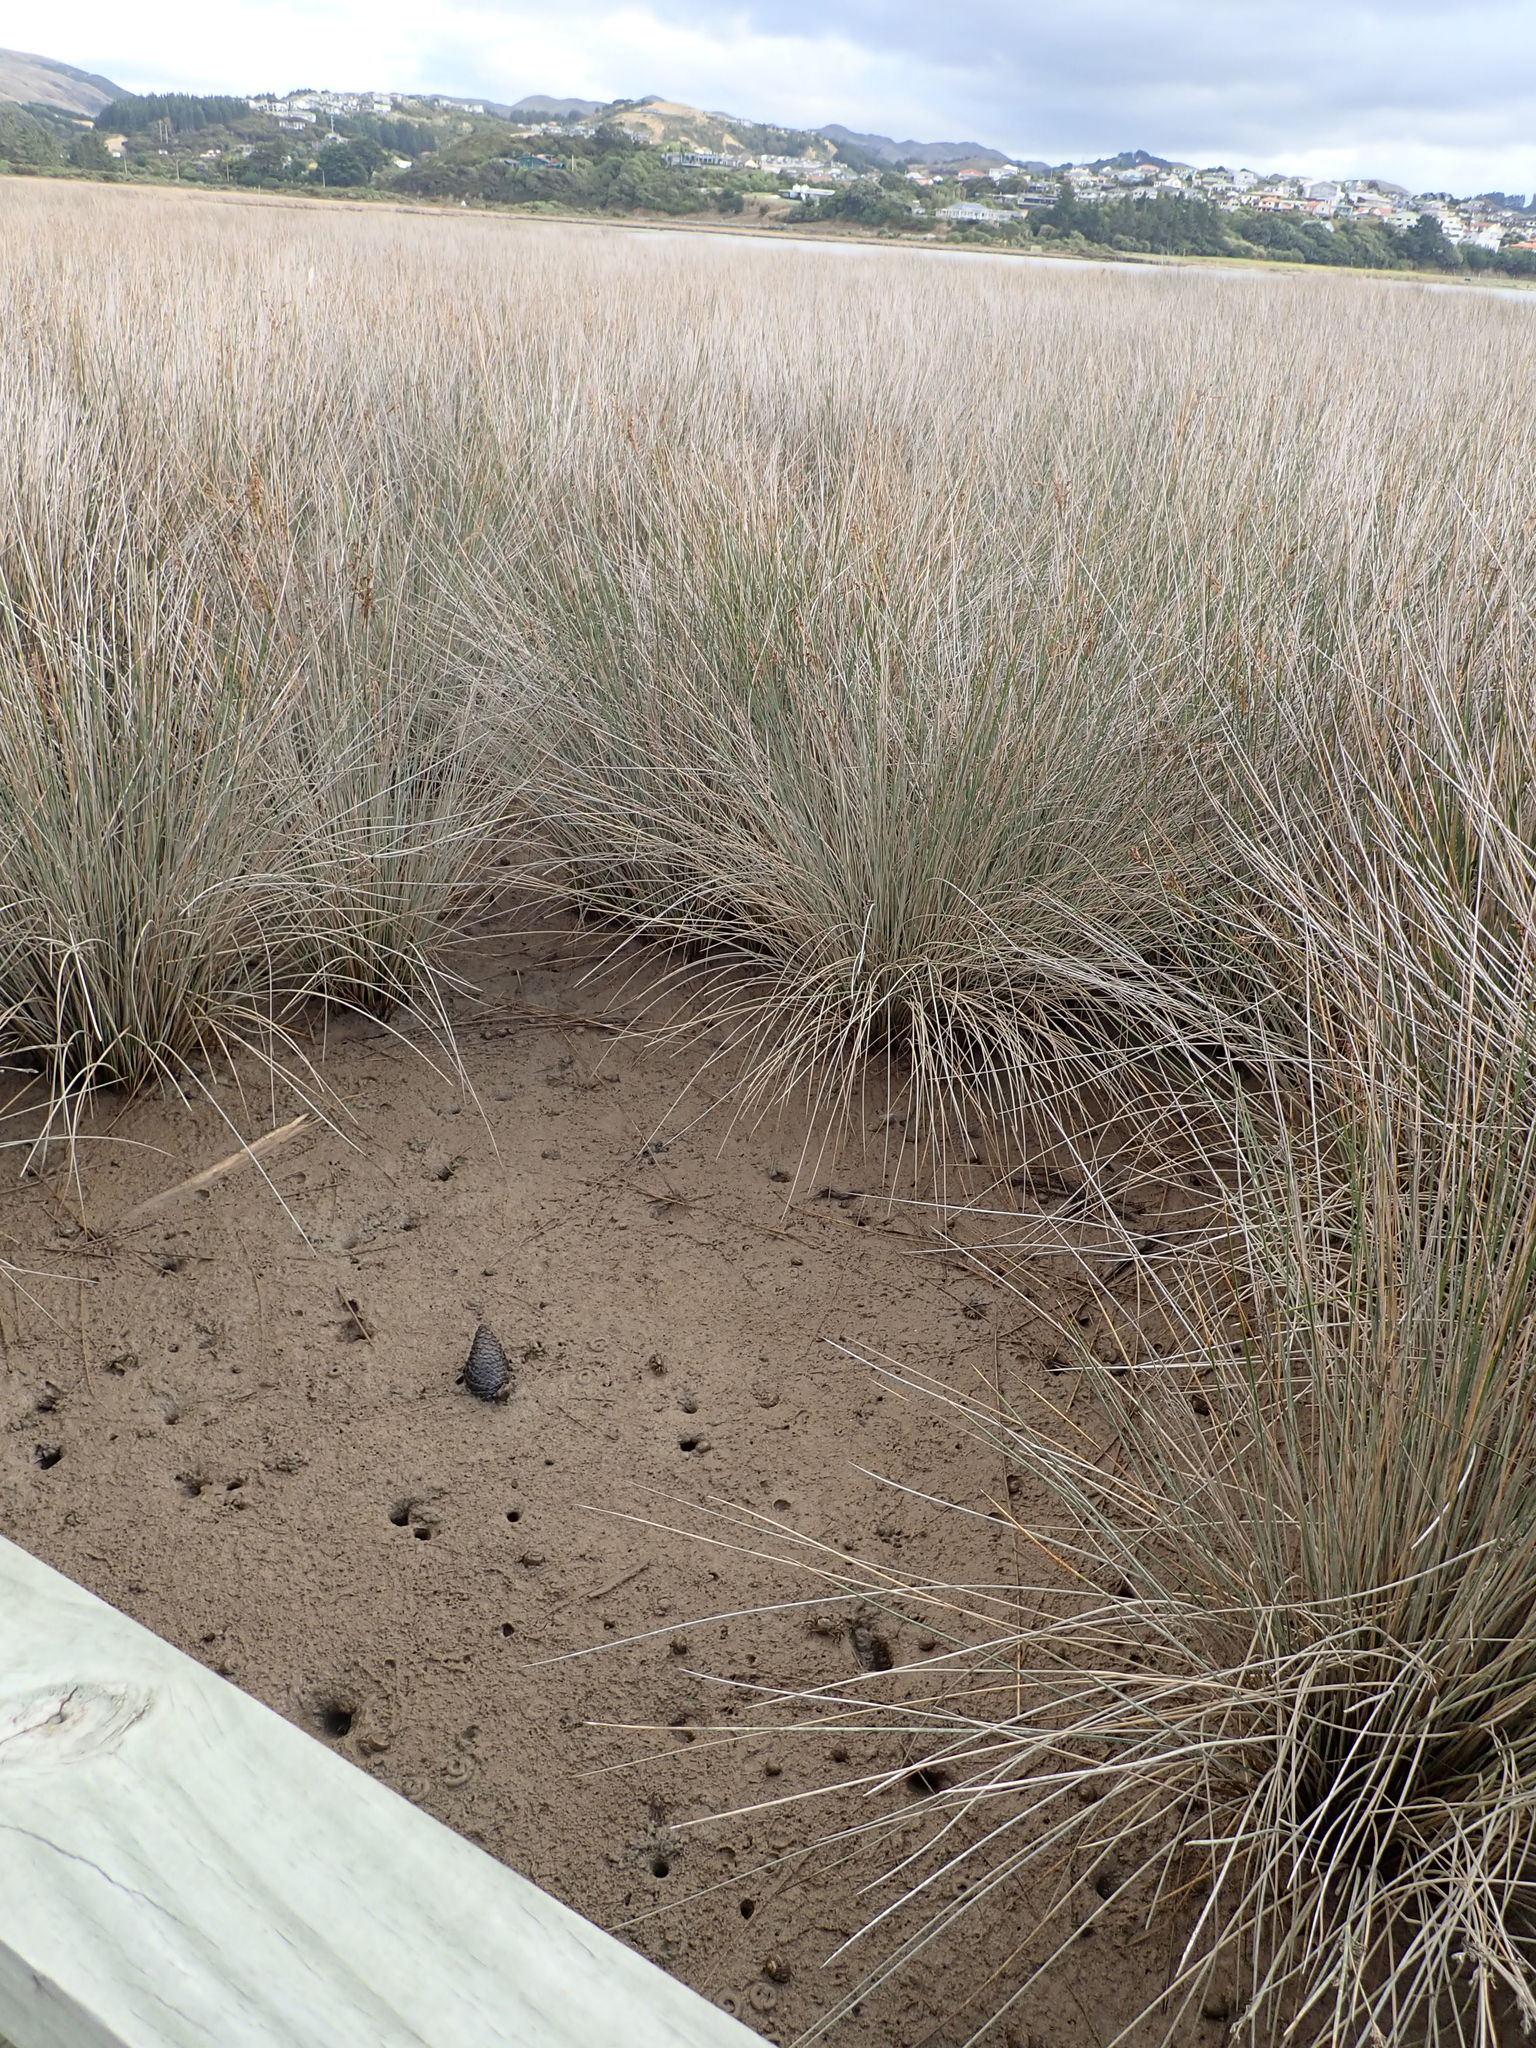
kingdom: Animalia
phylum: Arthropoda
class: Malacostraca
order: Decapoda
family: Varunidae
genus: Austrohelice
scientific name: Austrohelice crassa
